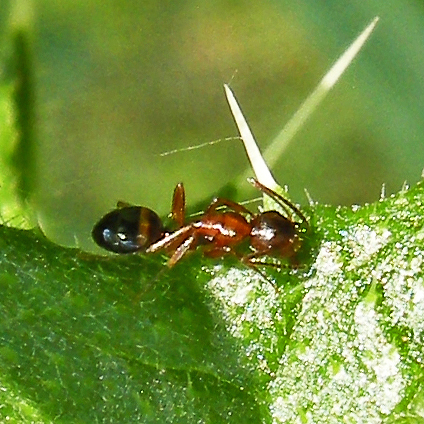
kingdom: Animalia
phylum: Arthropoda
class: Insecta
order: Hymenoptera
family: Formicidae
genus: Camponotus
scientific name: Camponotus subbarbatus
